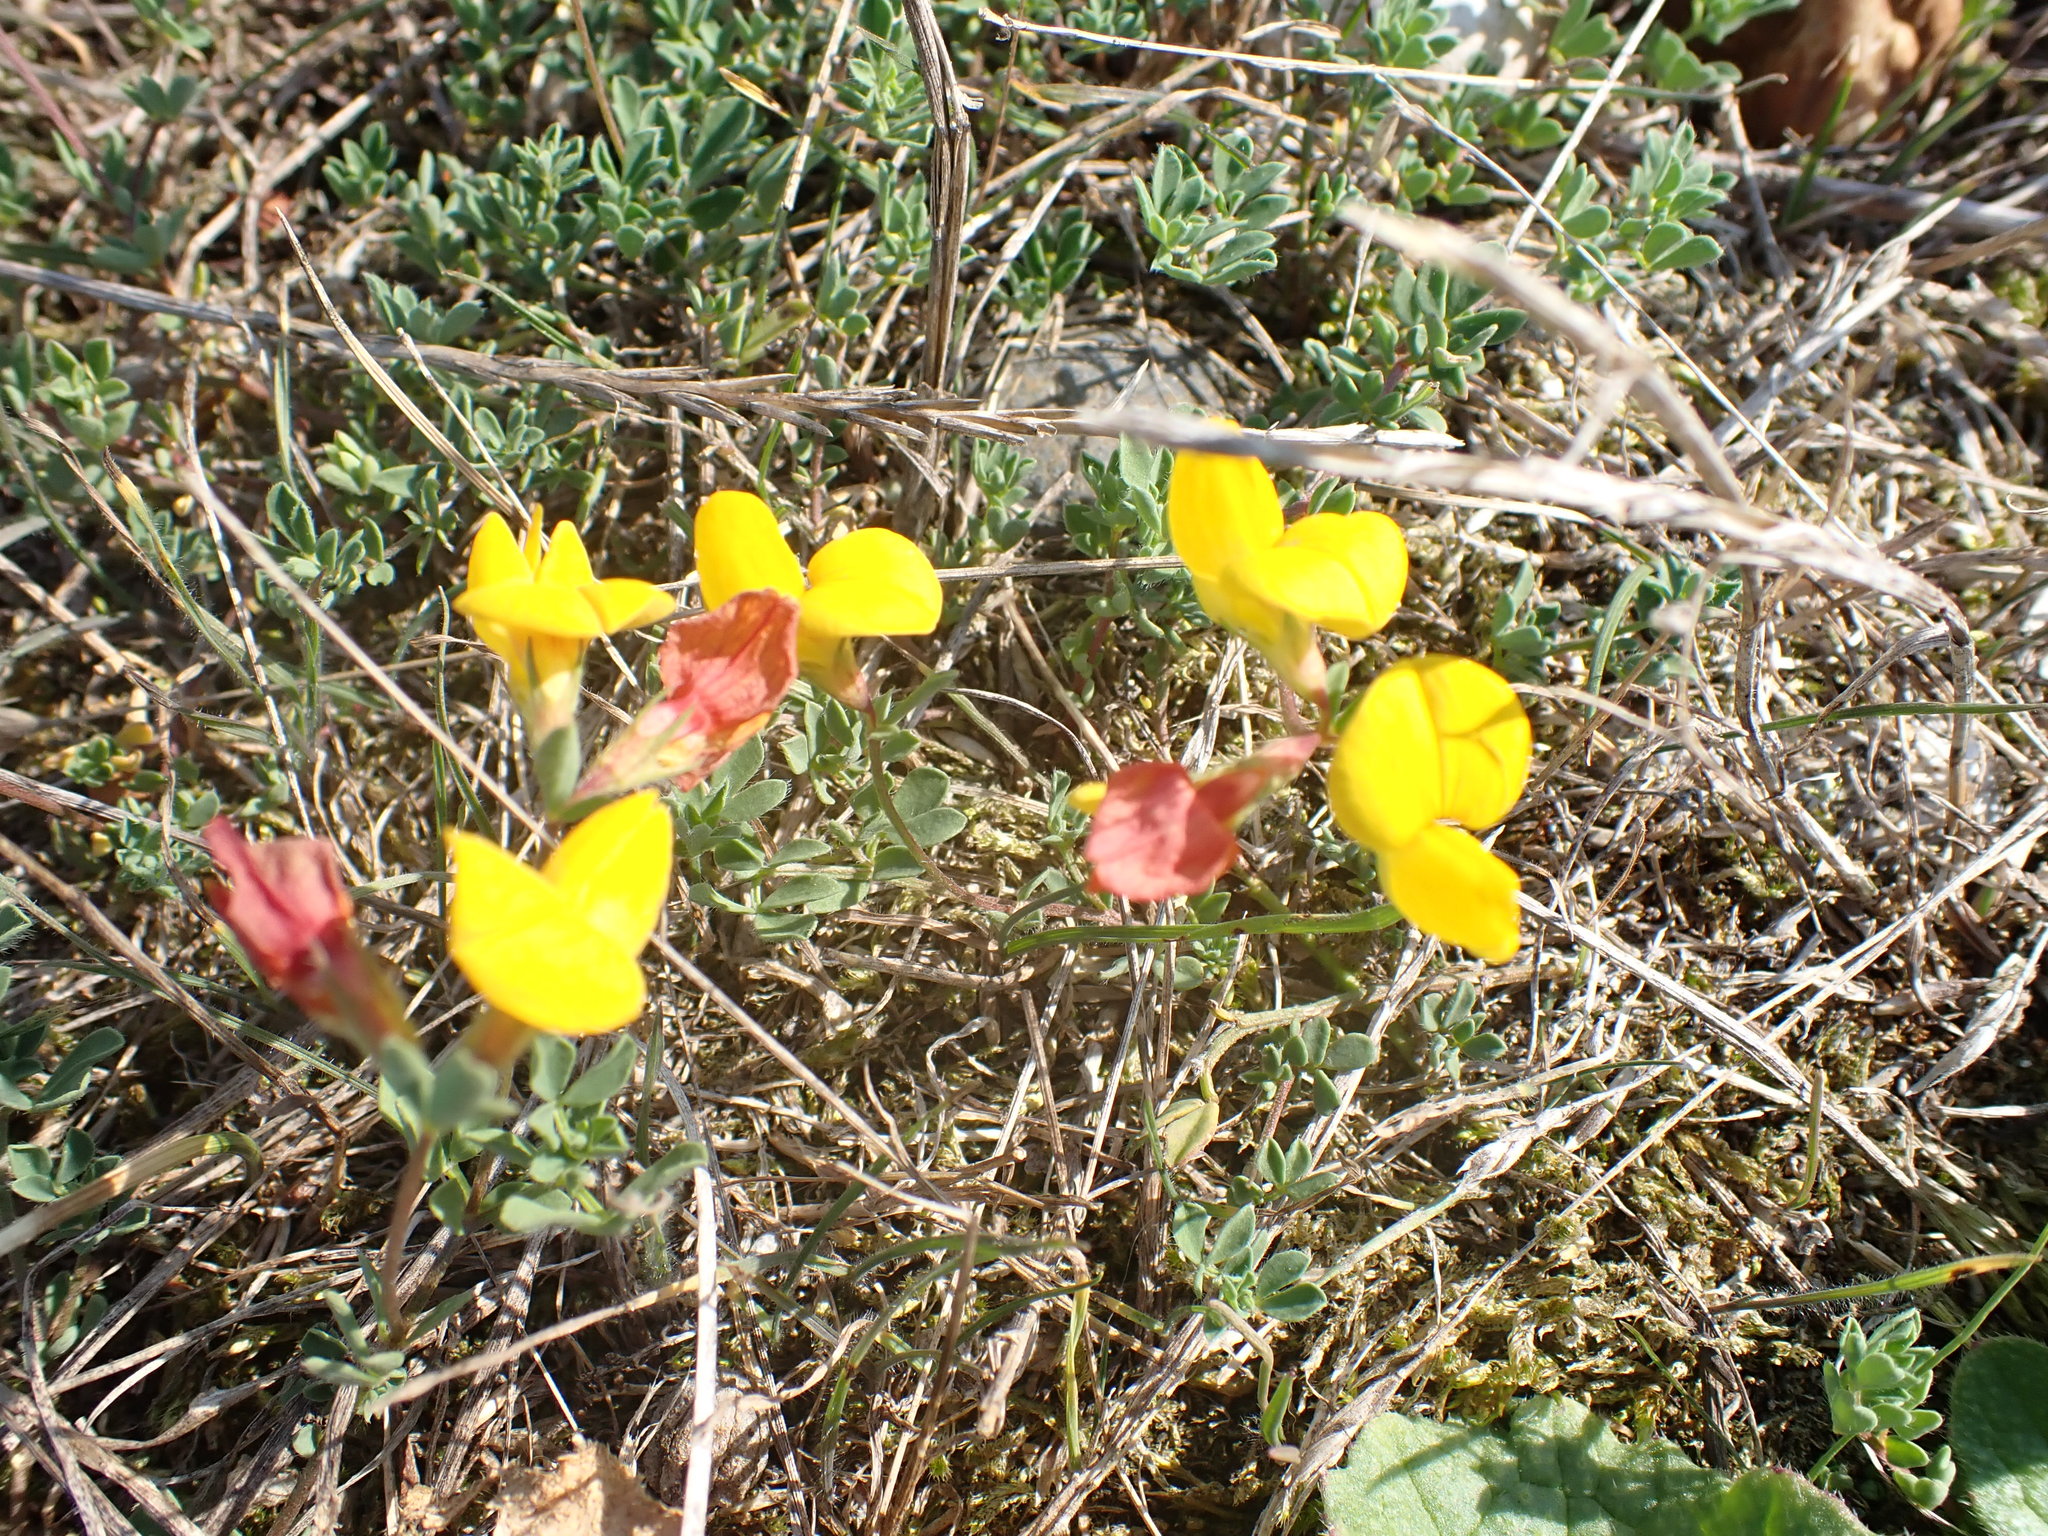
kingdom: Plantae
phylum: Tracheophyta
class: Magnoliopsida
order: Fabales
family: Fabaceae
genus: Lotus
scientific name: Lotus corniculatus
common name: Common bird's-foot-trefoil
